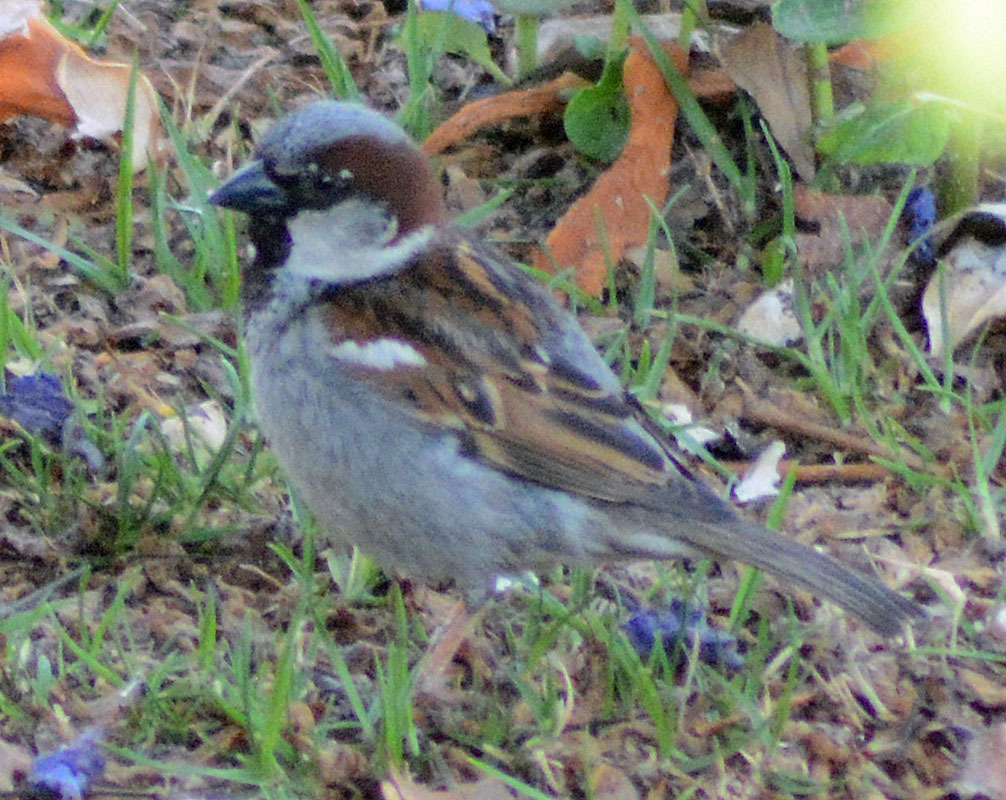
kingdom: Animalia
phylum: Chordata
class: Aves
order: Passeriformes
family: Passeridae
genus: Passer
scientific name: Passer domesticus
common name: House sparrow
